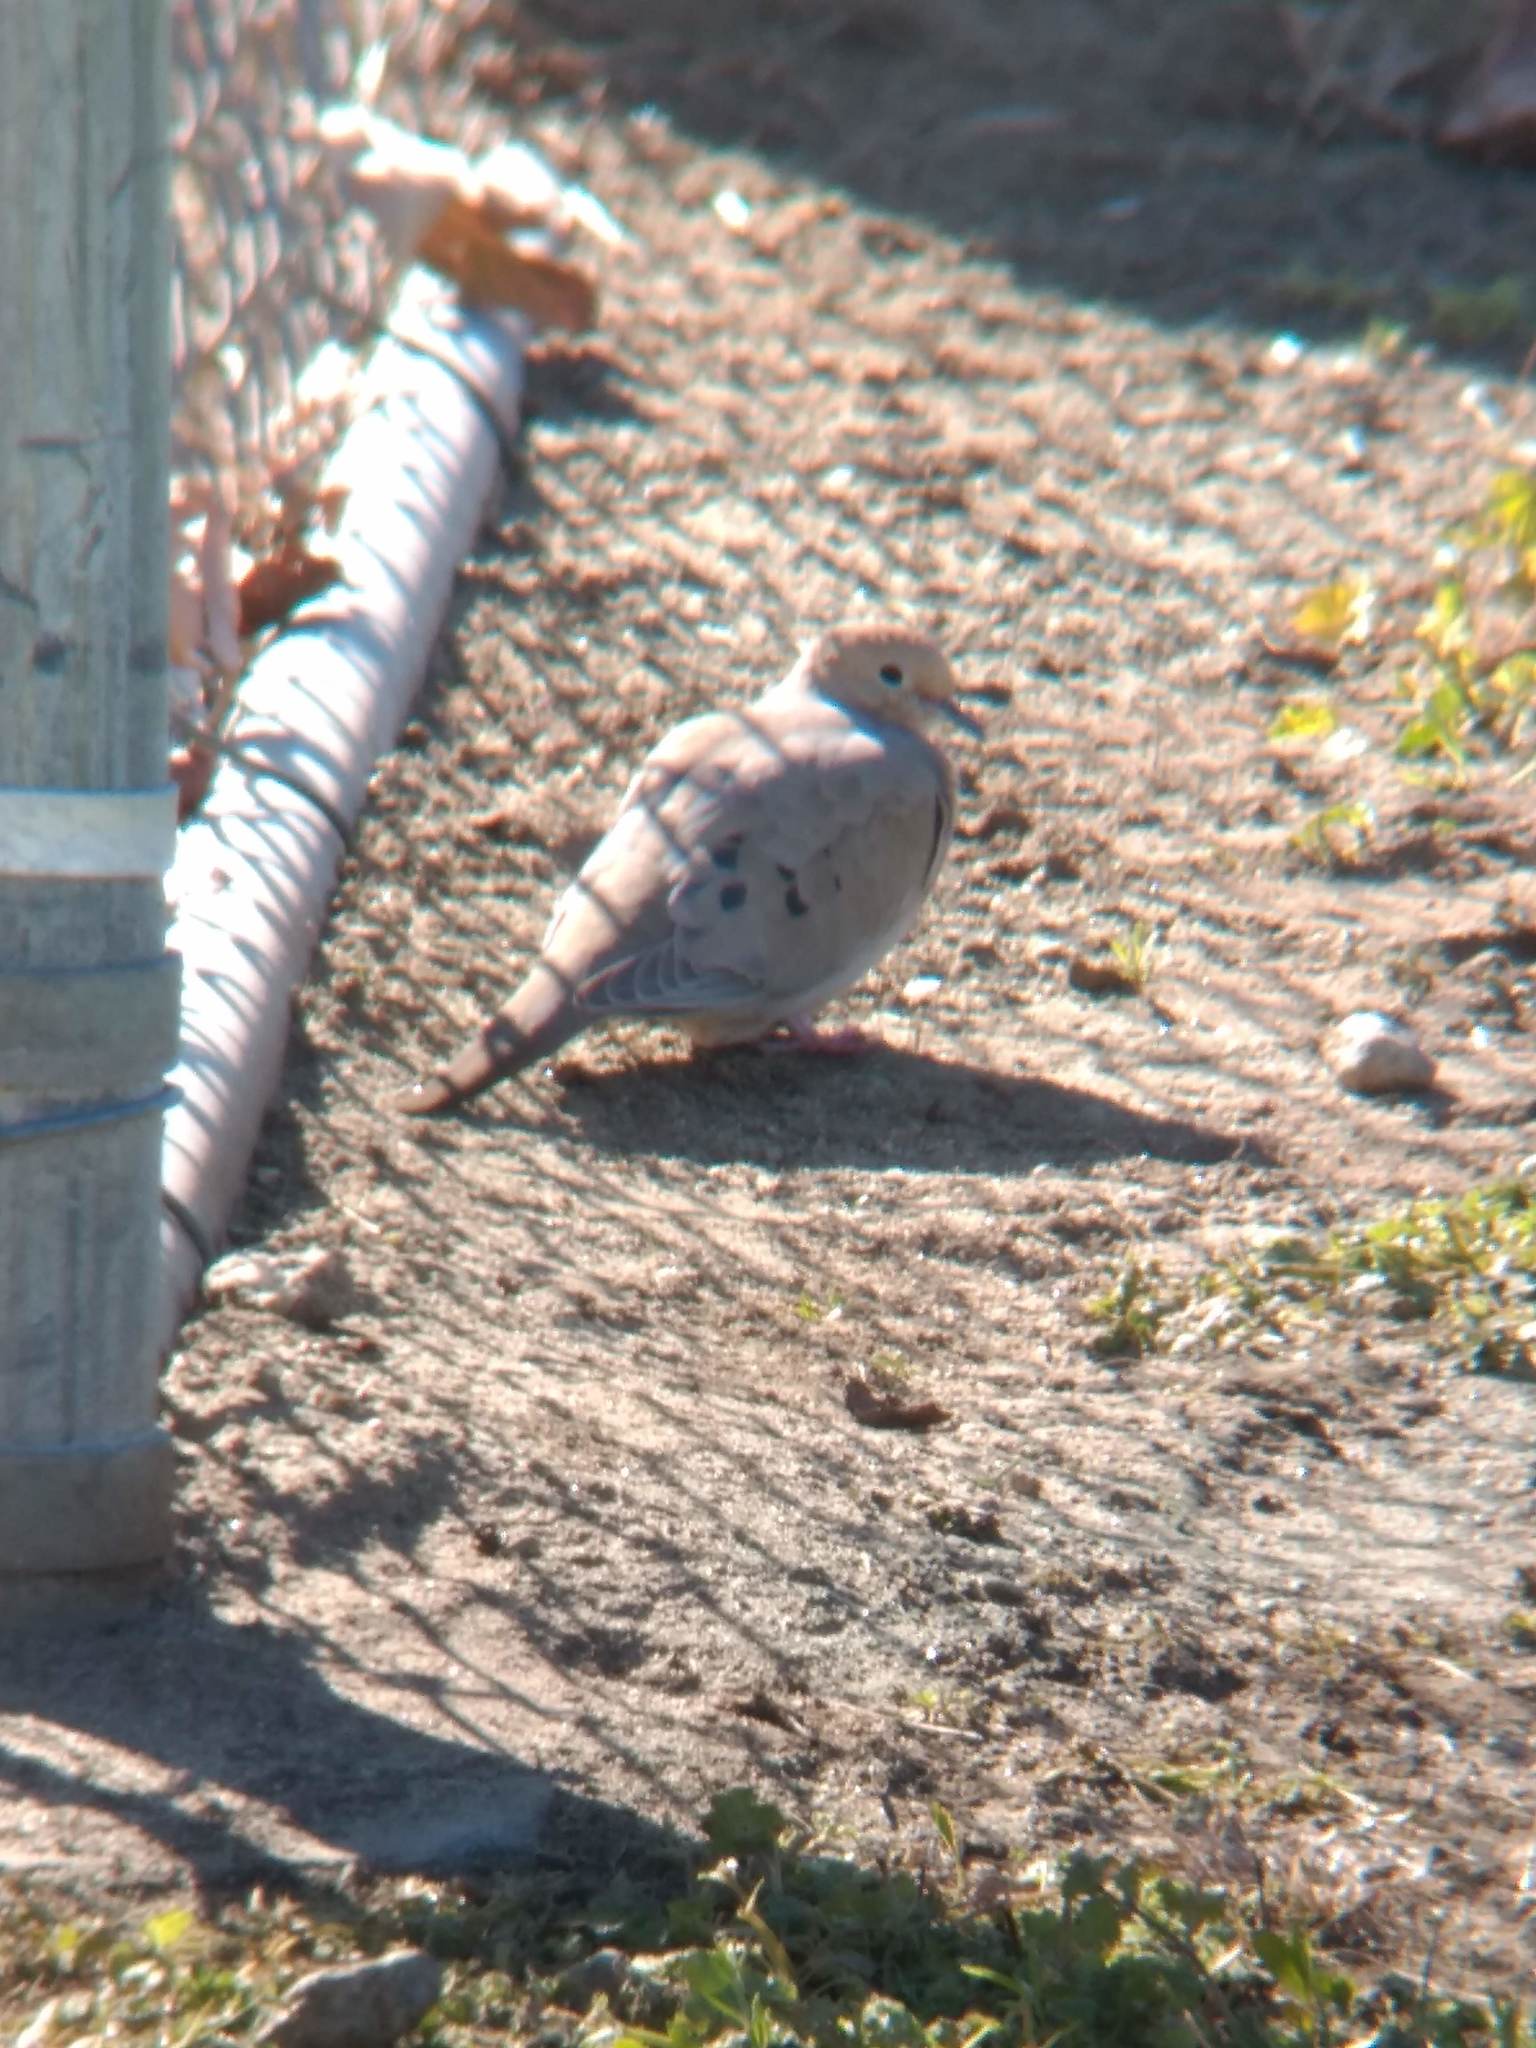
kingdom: Animalia
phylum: Chordata
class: Aves
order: Columbiformes
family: Columbidae
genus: Zenaida
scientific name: Zenaida macroura
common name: Mourning dove
